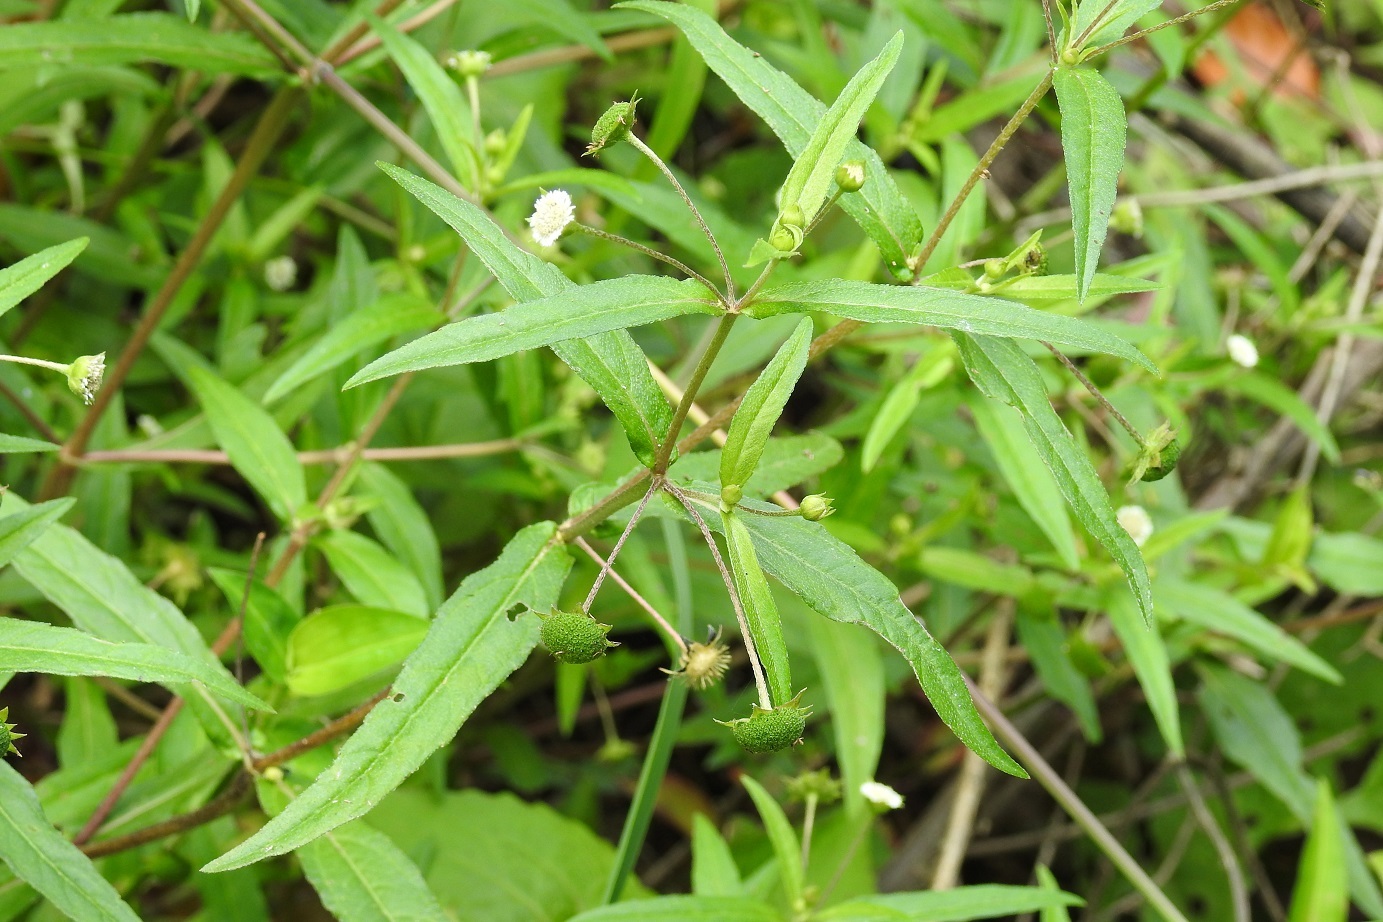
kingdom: Plantae
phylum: Tracheophyta
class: Magnoliopsida
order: Asterales
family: Asteraceae
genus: Eclipta
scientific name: Eclipta prostrata
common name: False daisy
